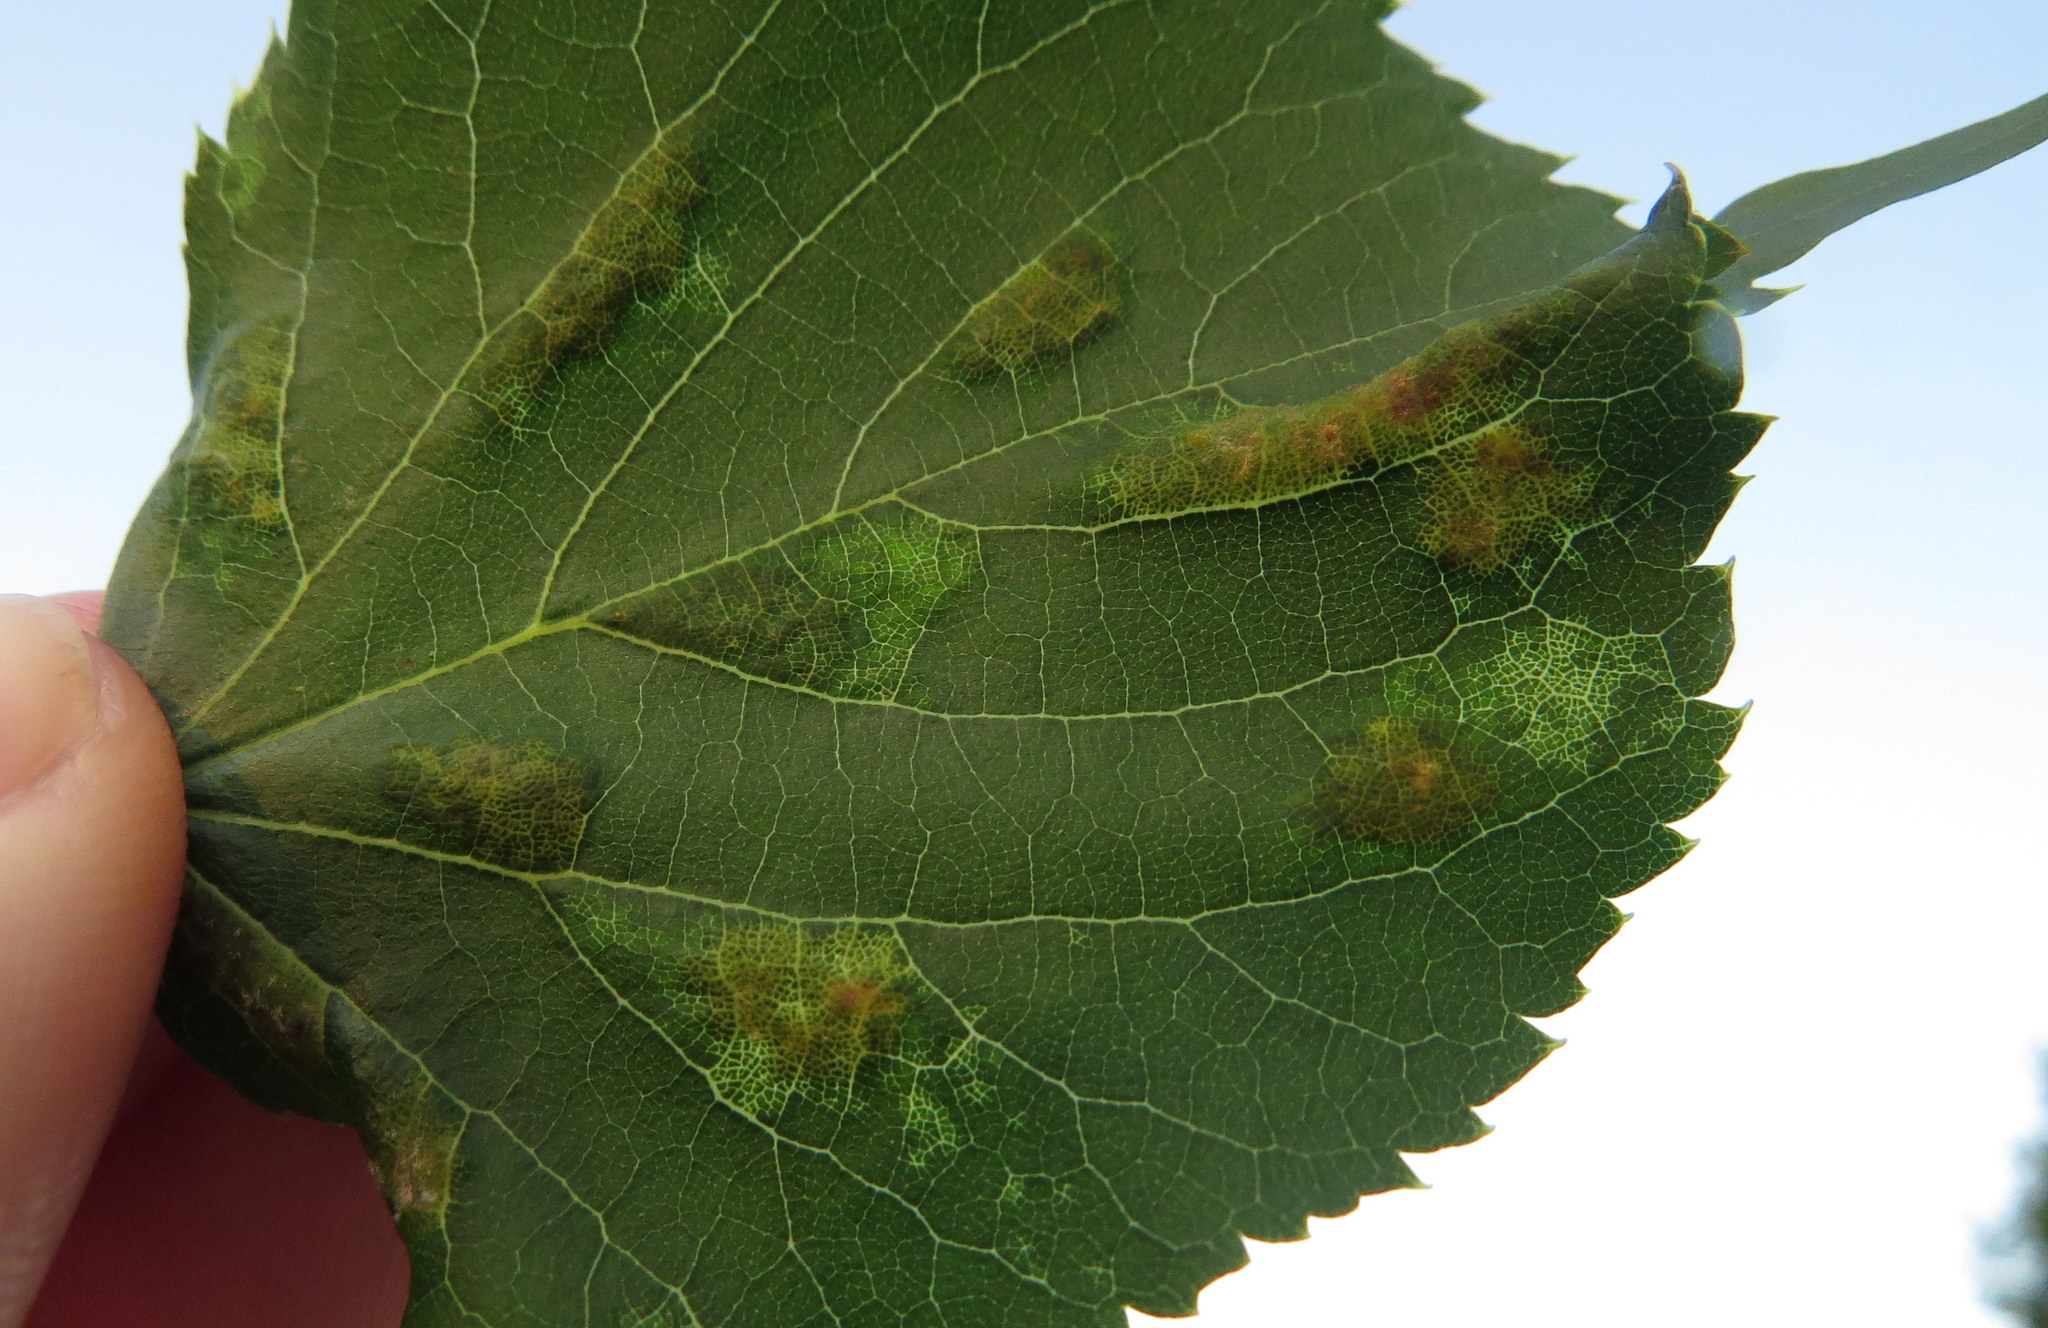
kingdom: Animalia
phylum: Arthropoda
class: Arachnida
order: Trombidiformes
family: Eriophyidae
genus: Eriophyes
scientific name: Eriophyes leiosoma
